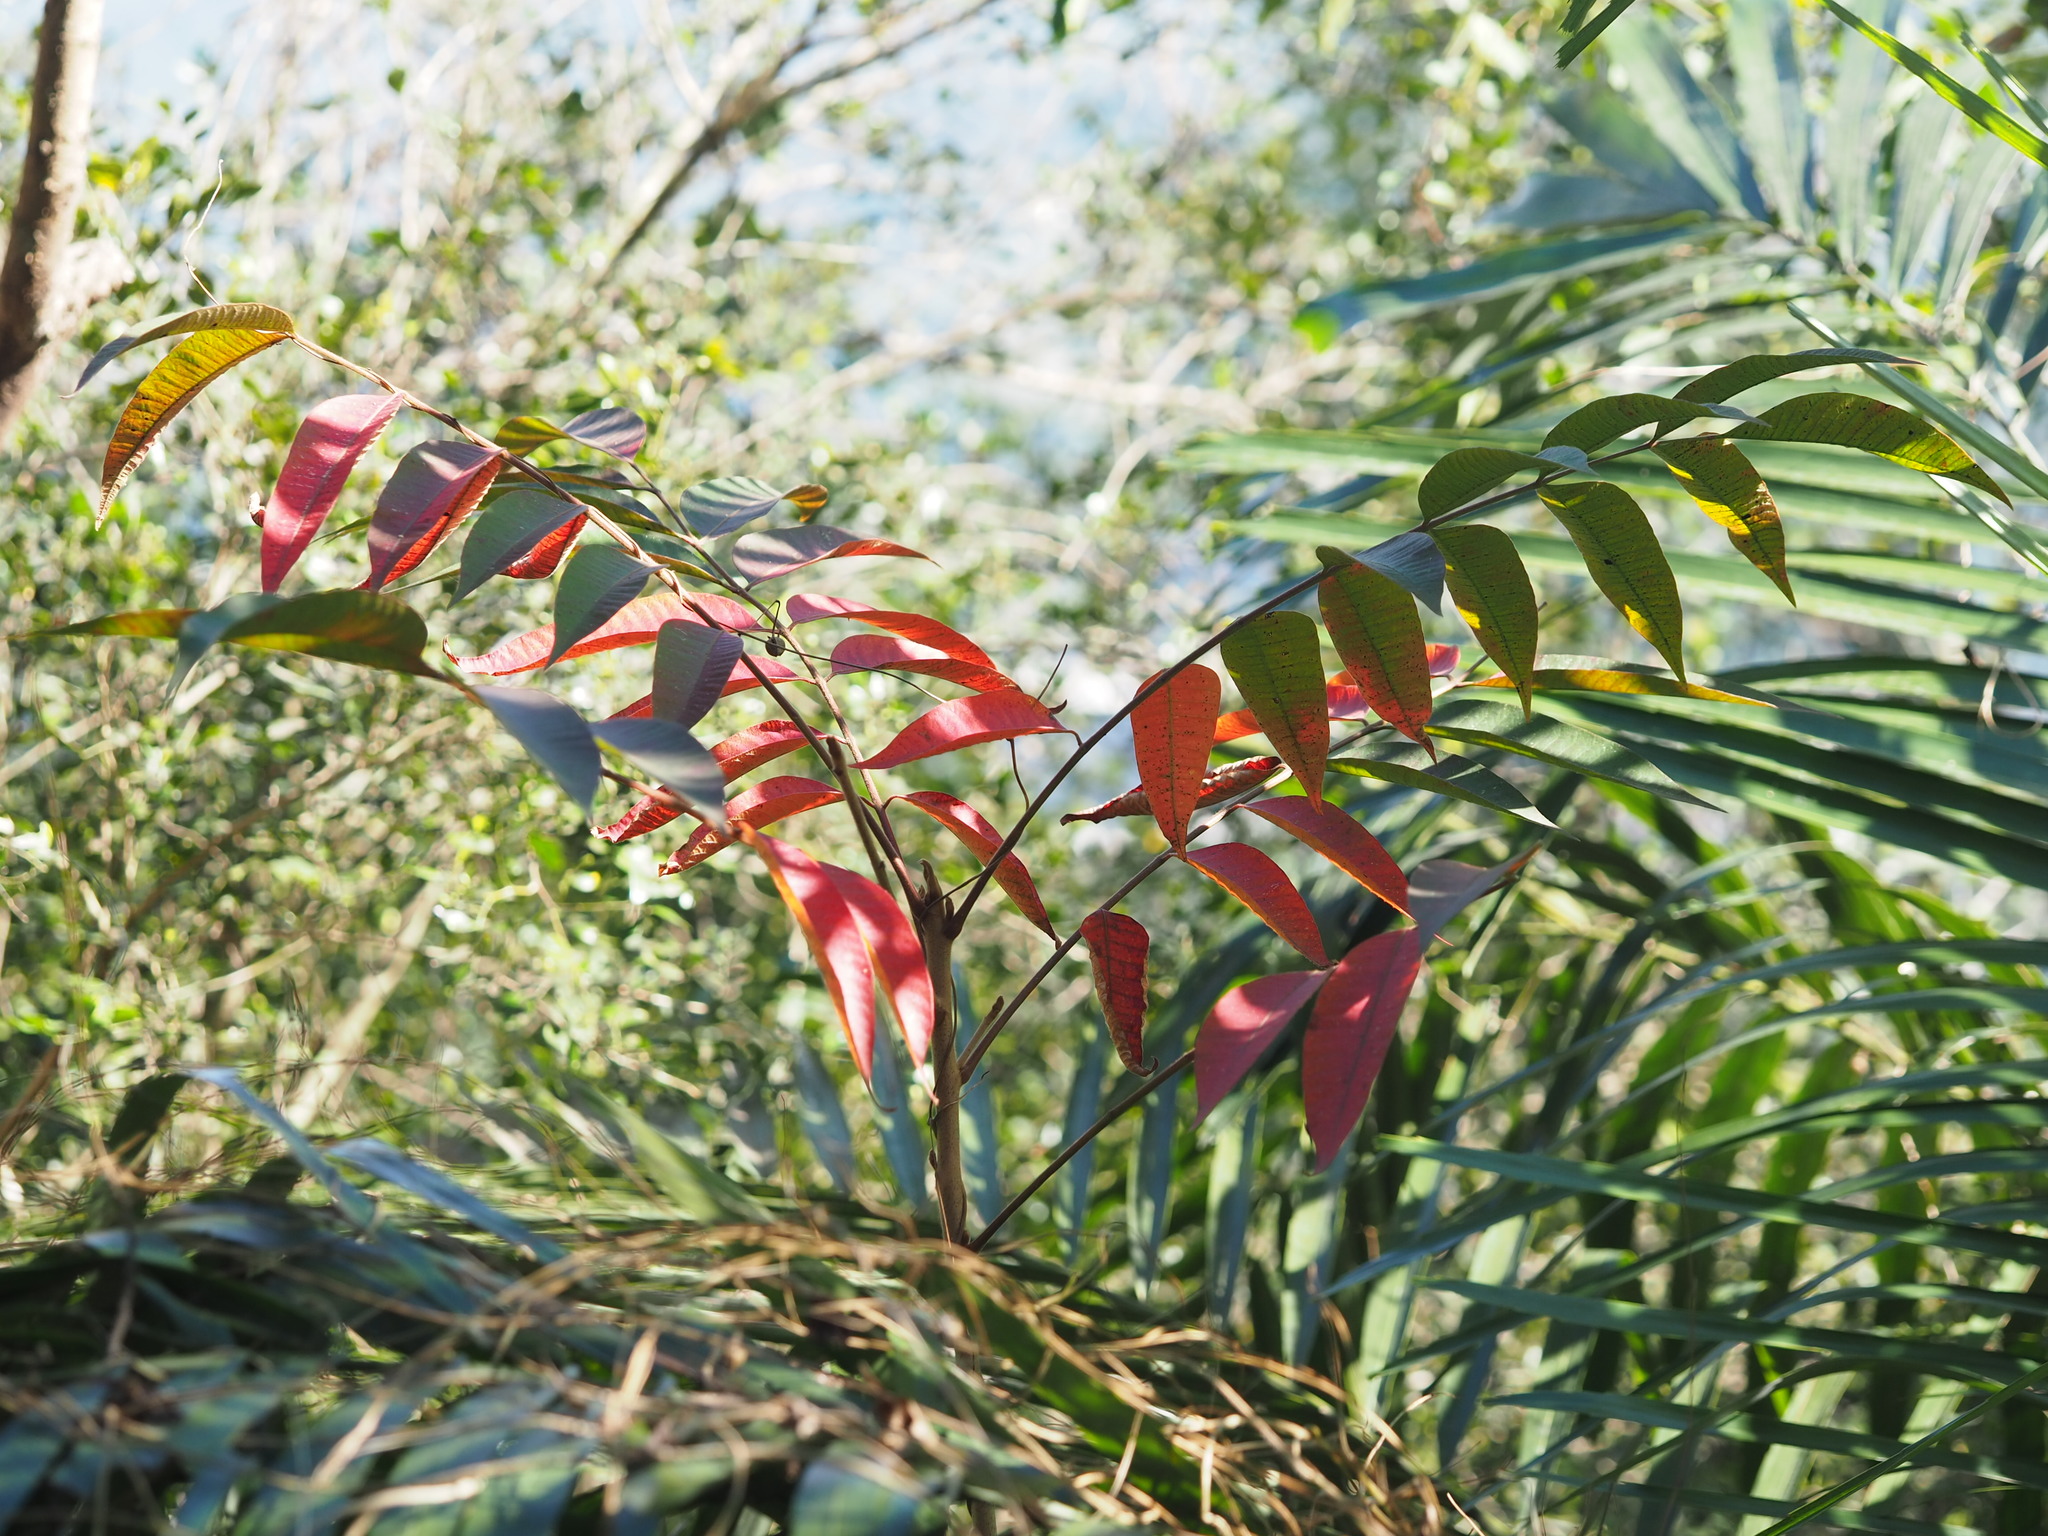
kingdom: Plantae
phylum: Tracheophyta
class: Magnoliopsida
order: Sapindales
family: Anacardiaceae
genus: Toxicodendron
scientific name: Toxicodendron sylvestre
